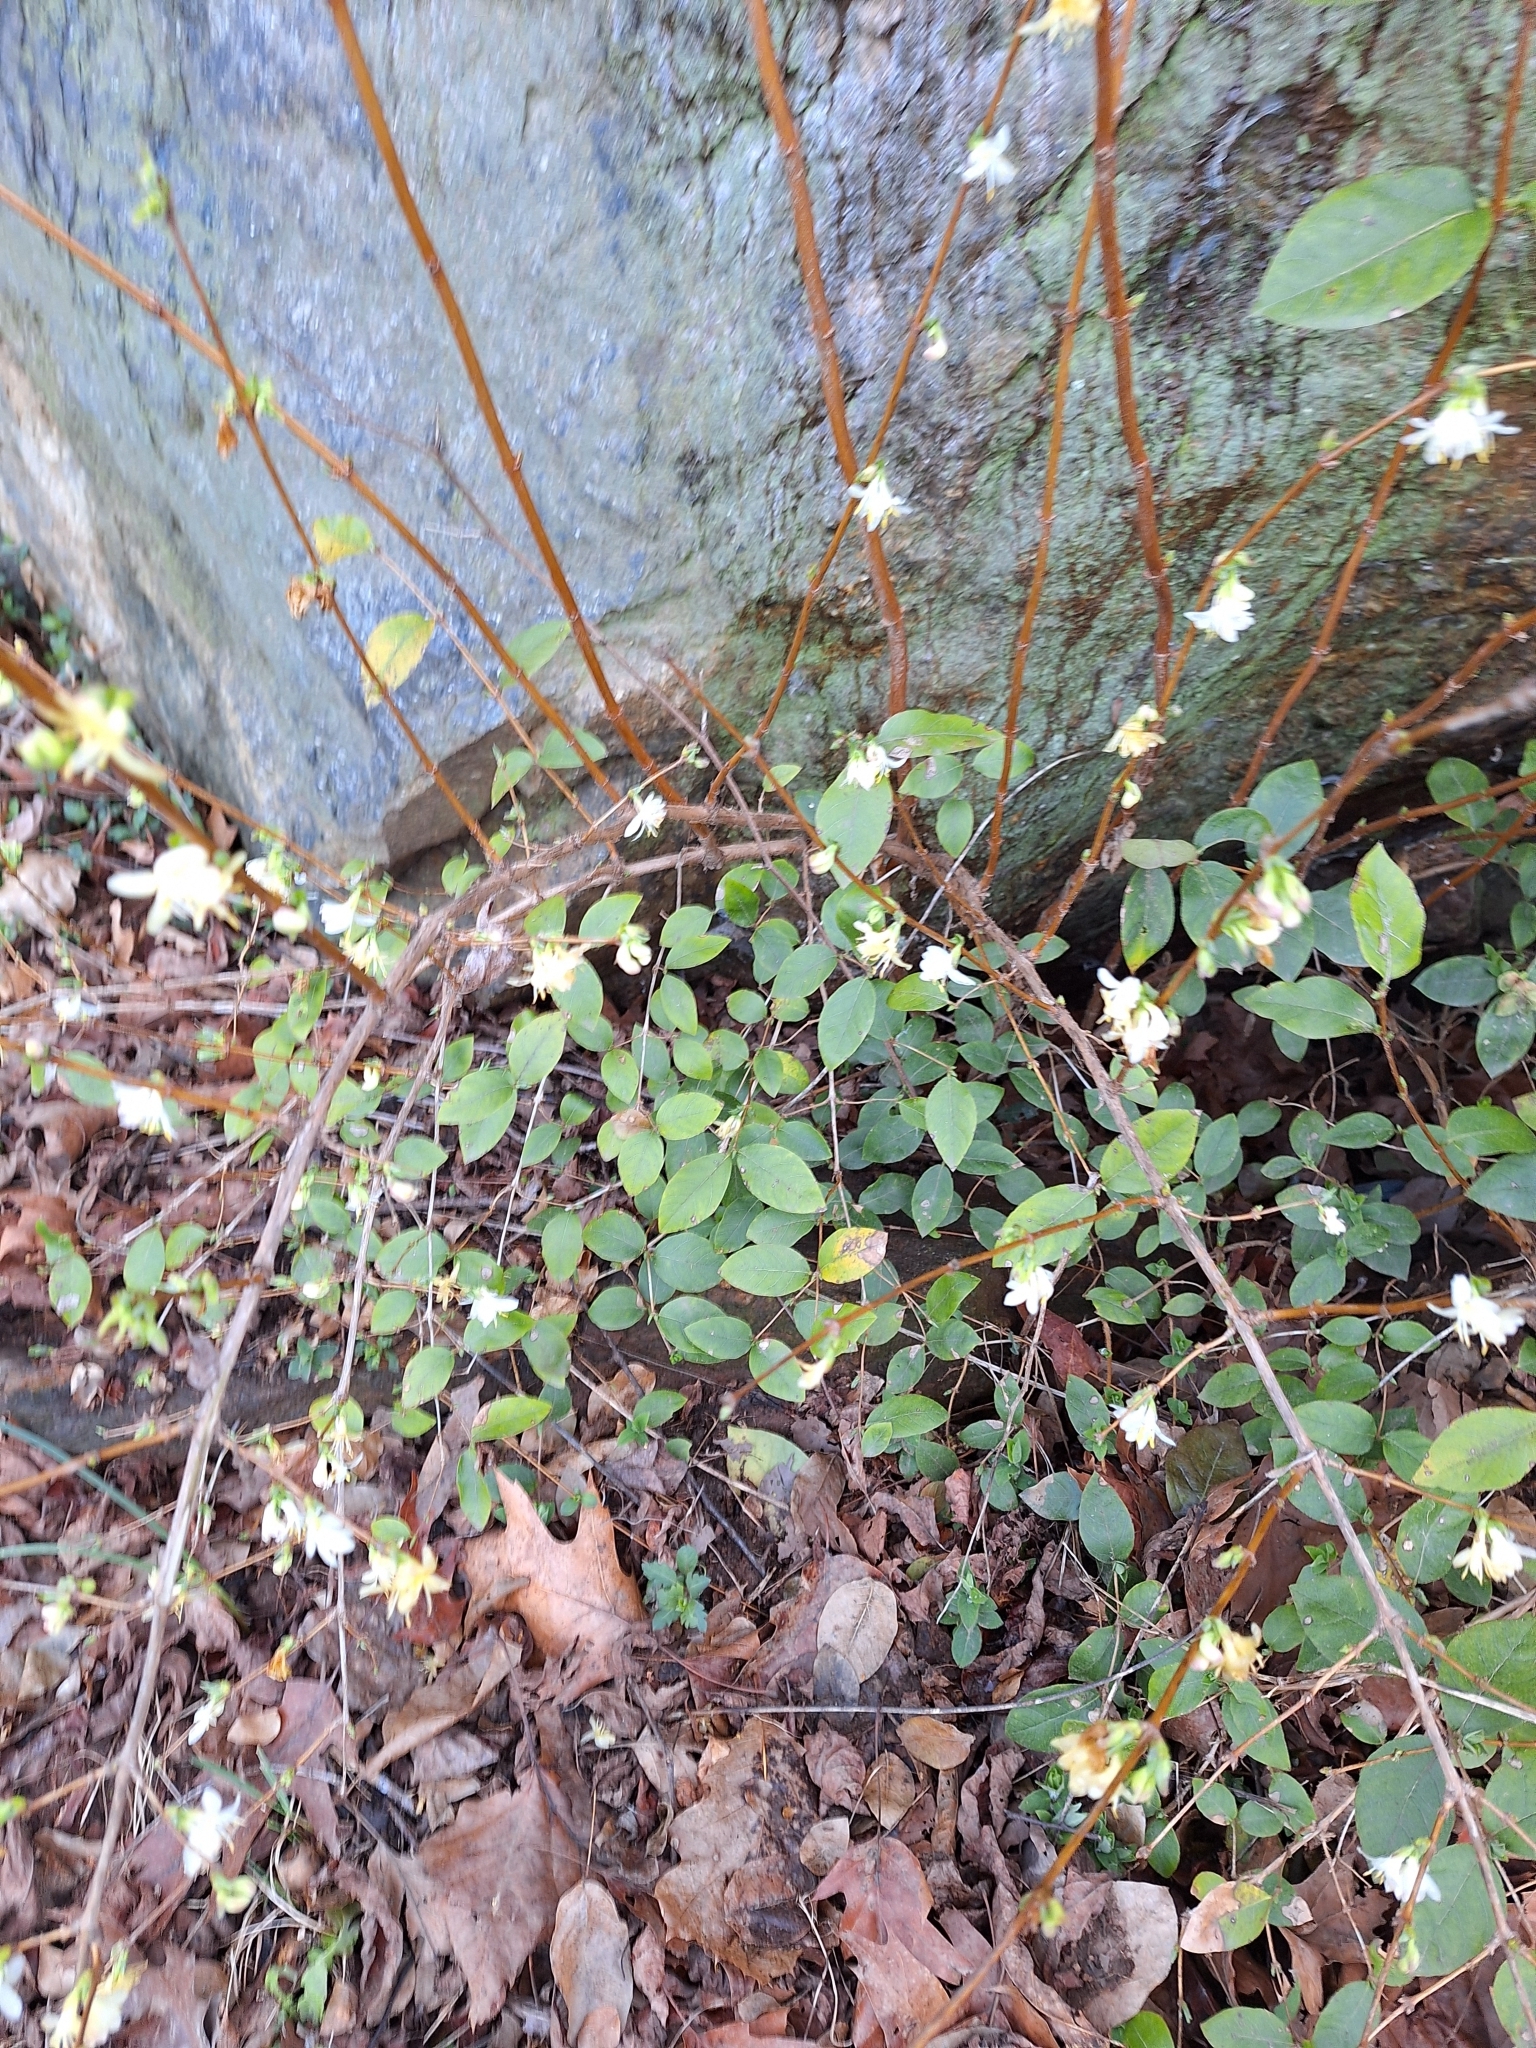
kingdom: Plantae
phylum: Tracheophyta
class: Magnoliopsida
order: Dipsacales
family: Caprifoliaceae
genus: Lonicera
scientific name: Lonicera fragrantissima
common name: Fragrant honeysuckle
